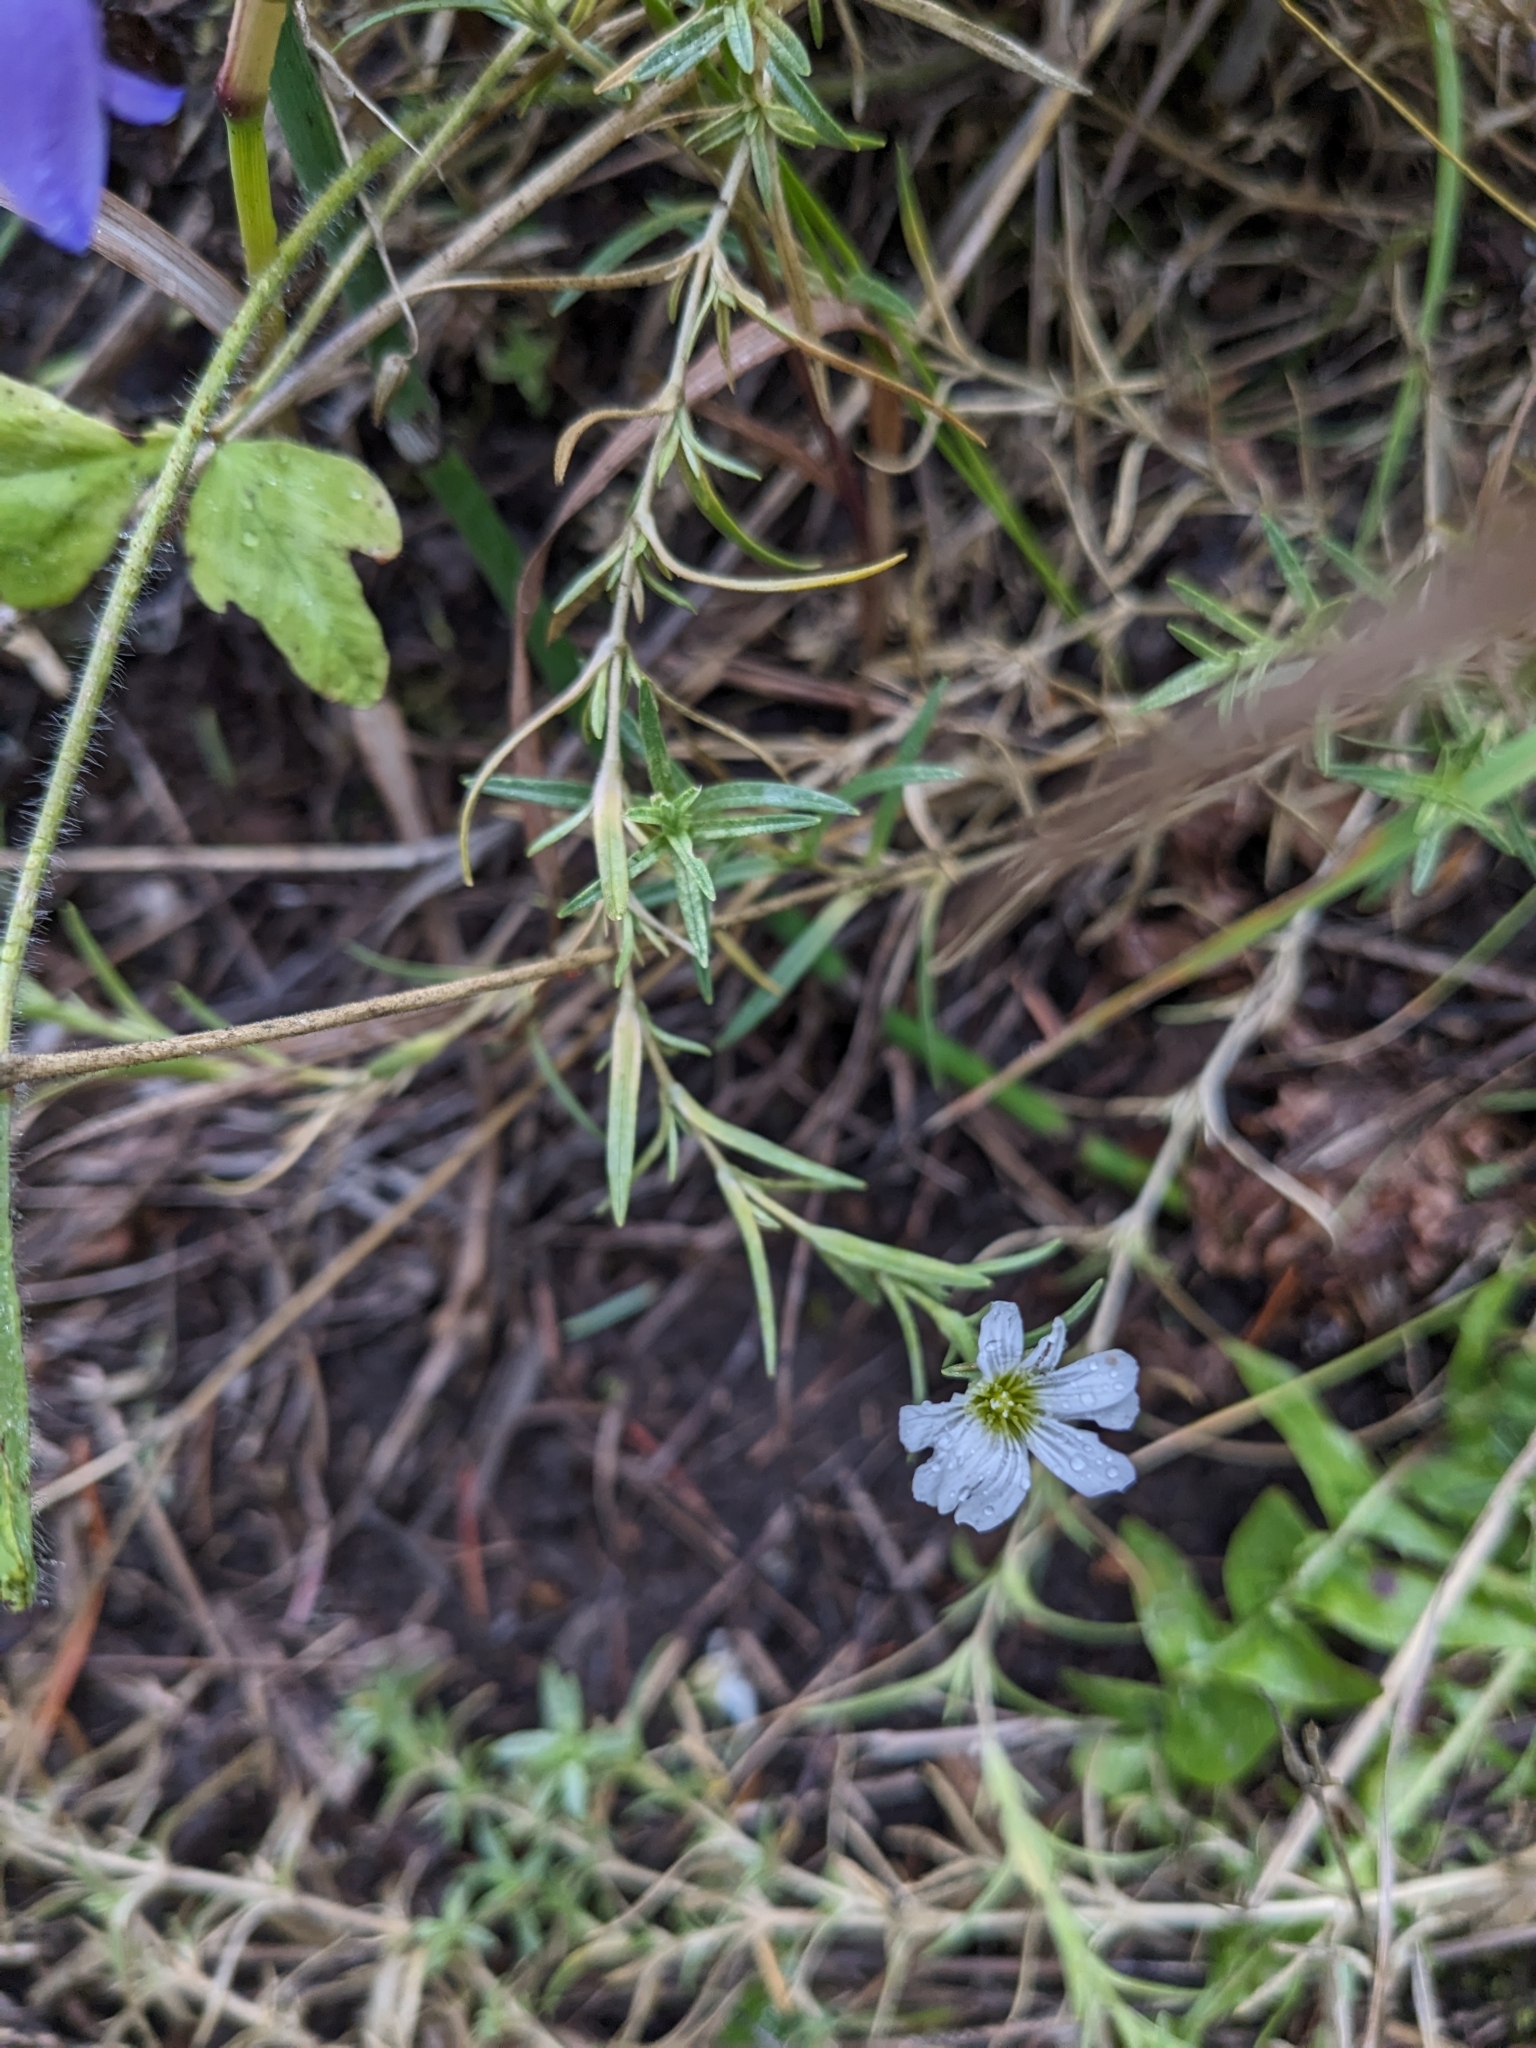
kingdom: Plantae
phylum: Tracheophyta
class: Magnoliopsida
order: Malpighiales
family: Linaceae
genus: Linum
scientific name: Linum lewisii
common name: Prairie flax
